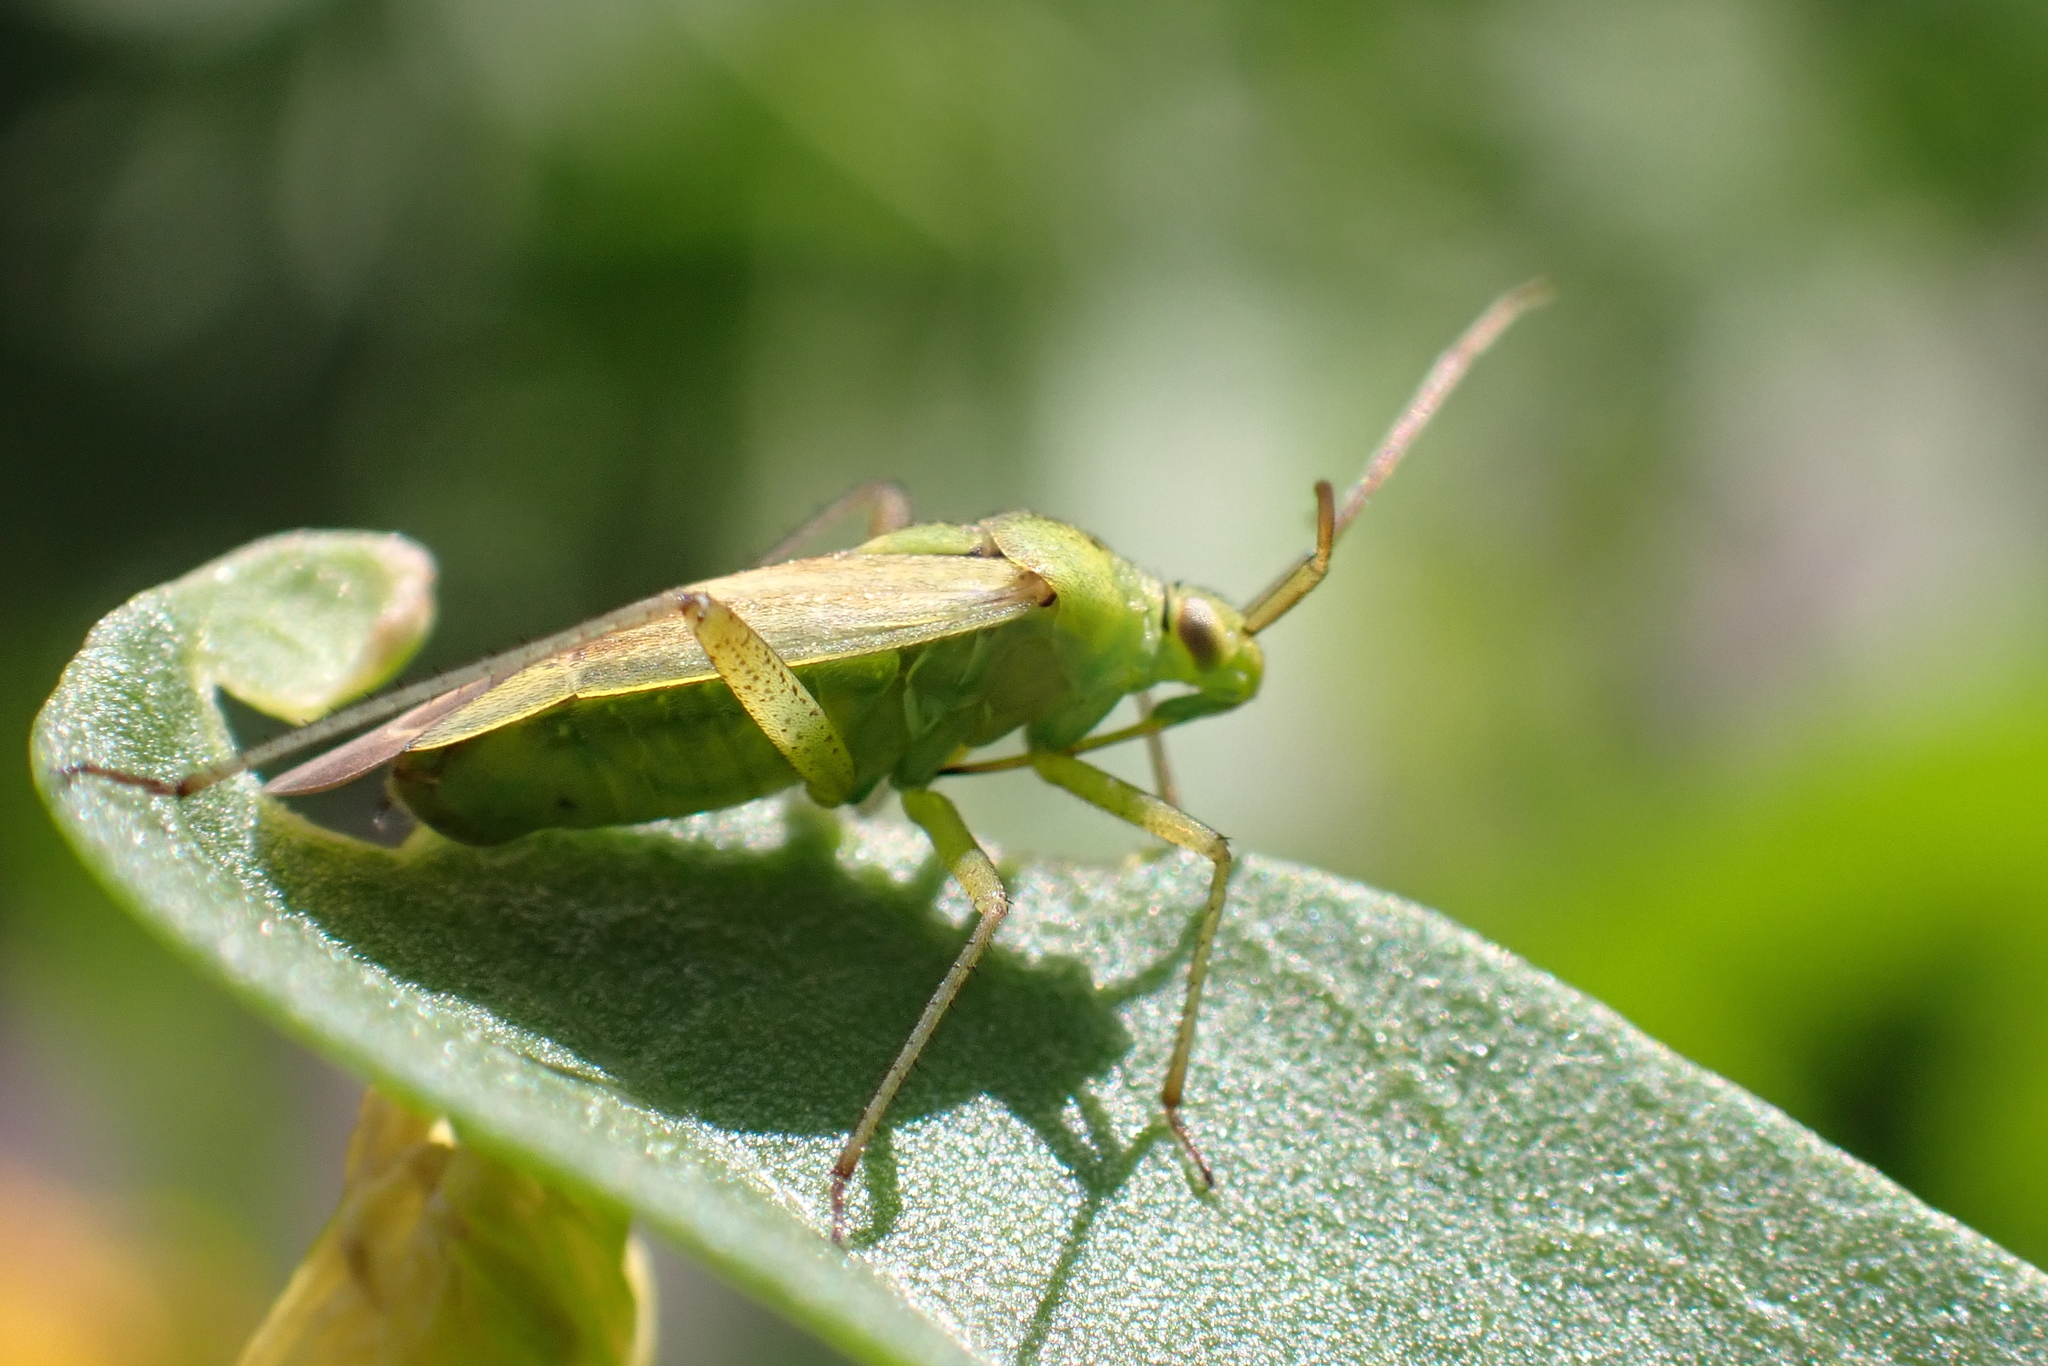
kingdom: Animalia
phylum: Arthropoda
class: Insecta
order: Hemiptera
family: Miridae
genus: Closterotomus
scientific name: Closterotomus norvegicus
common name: Plant bug
